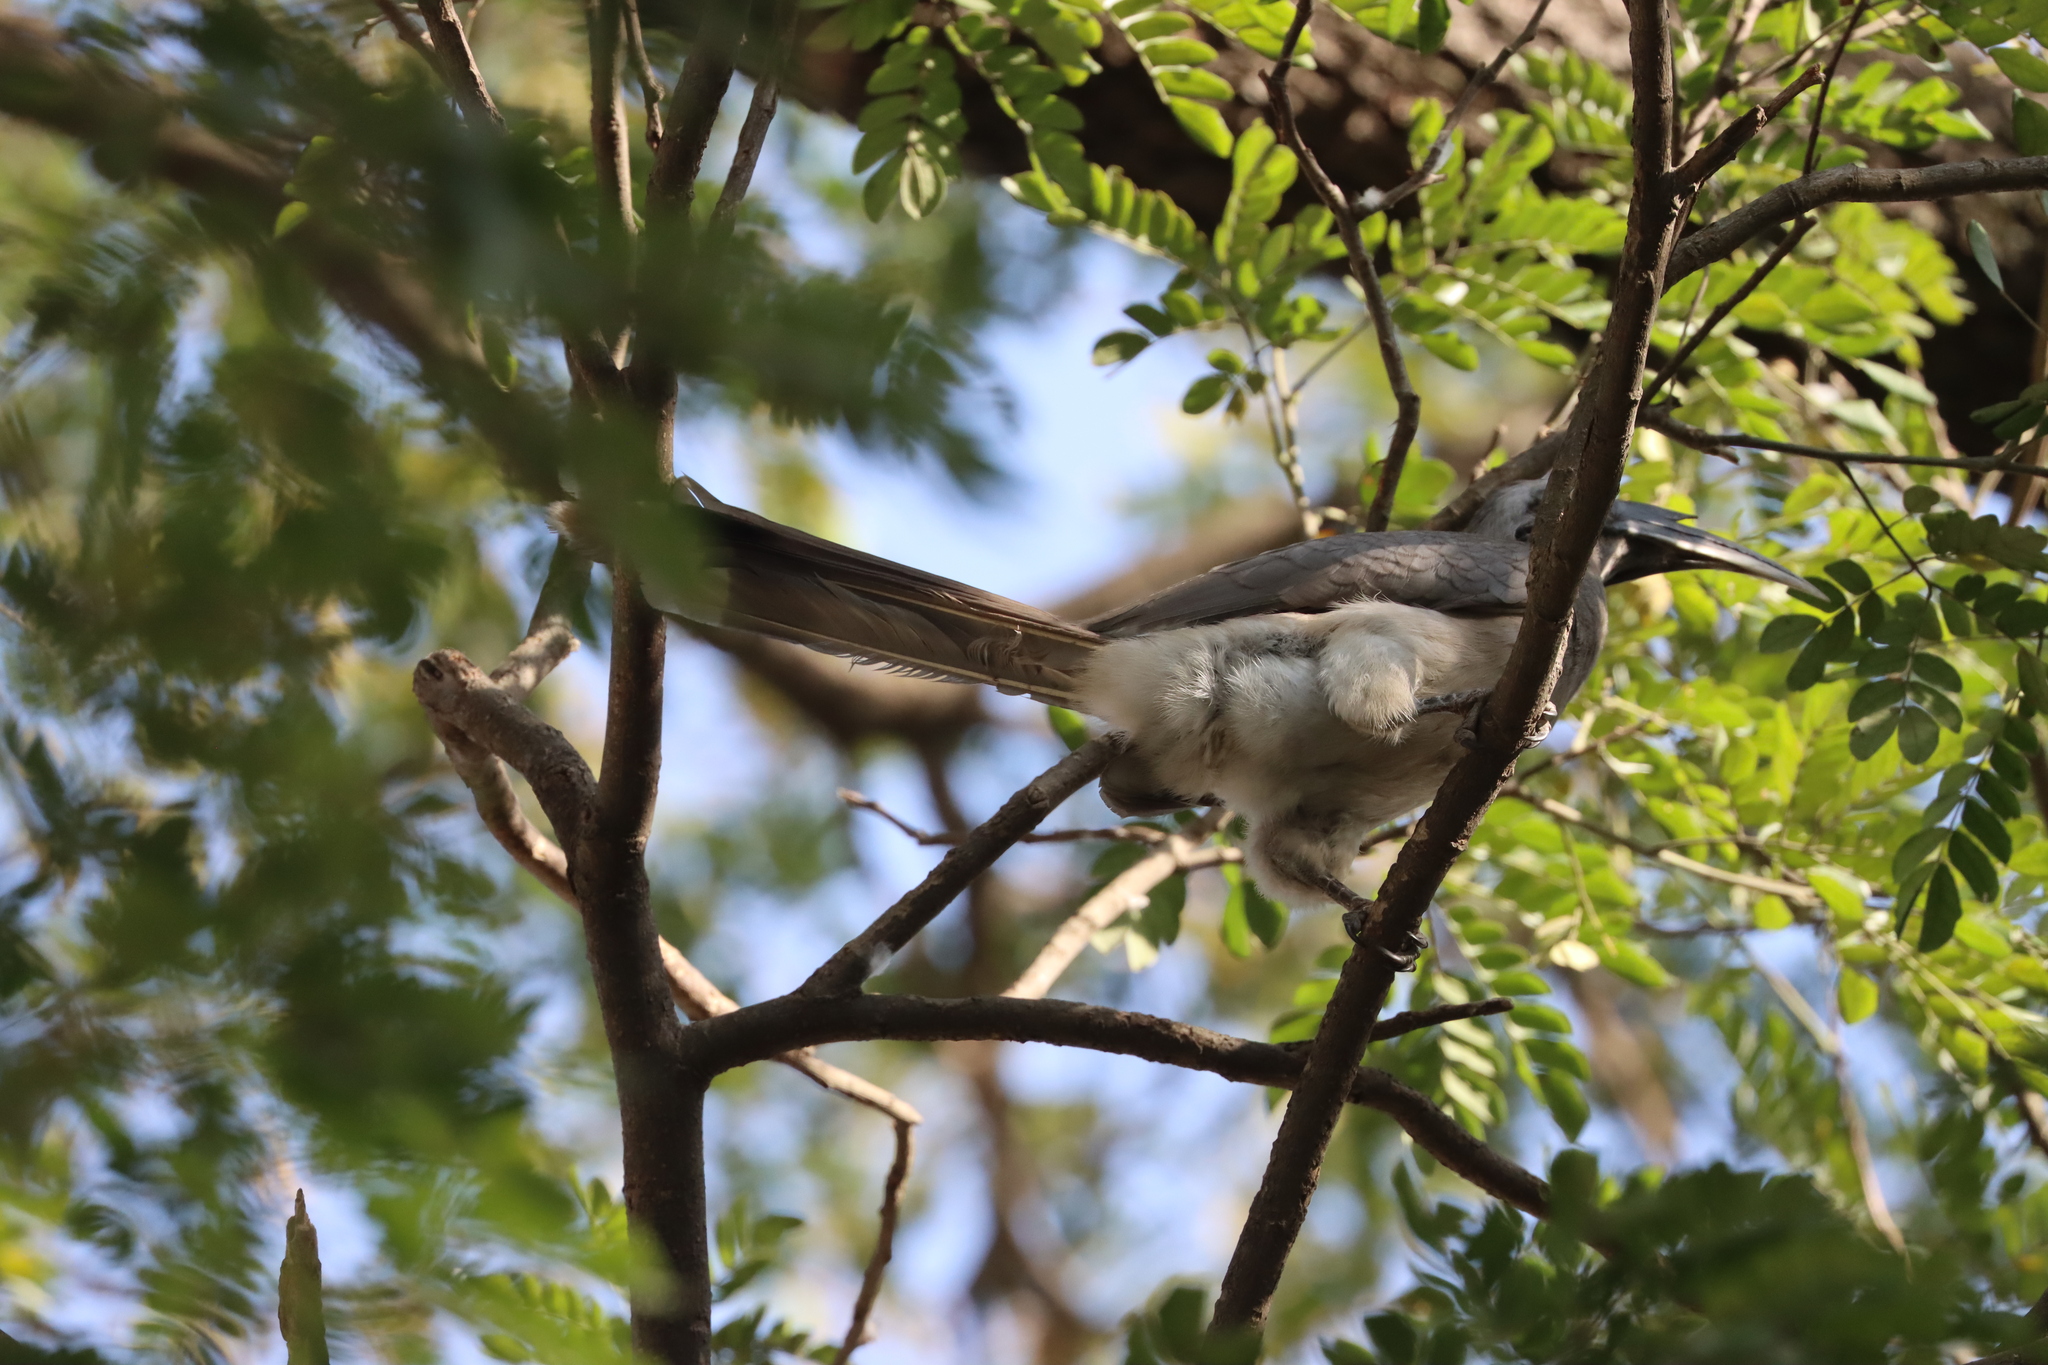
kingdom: Animalia
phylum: Chordata
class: Aves
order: Bucerotiformes
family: Bucerotidae
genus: Ocyceros
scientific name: Ocyceros birostris
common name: Indian grey hornbill
